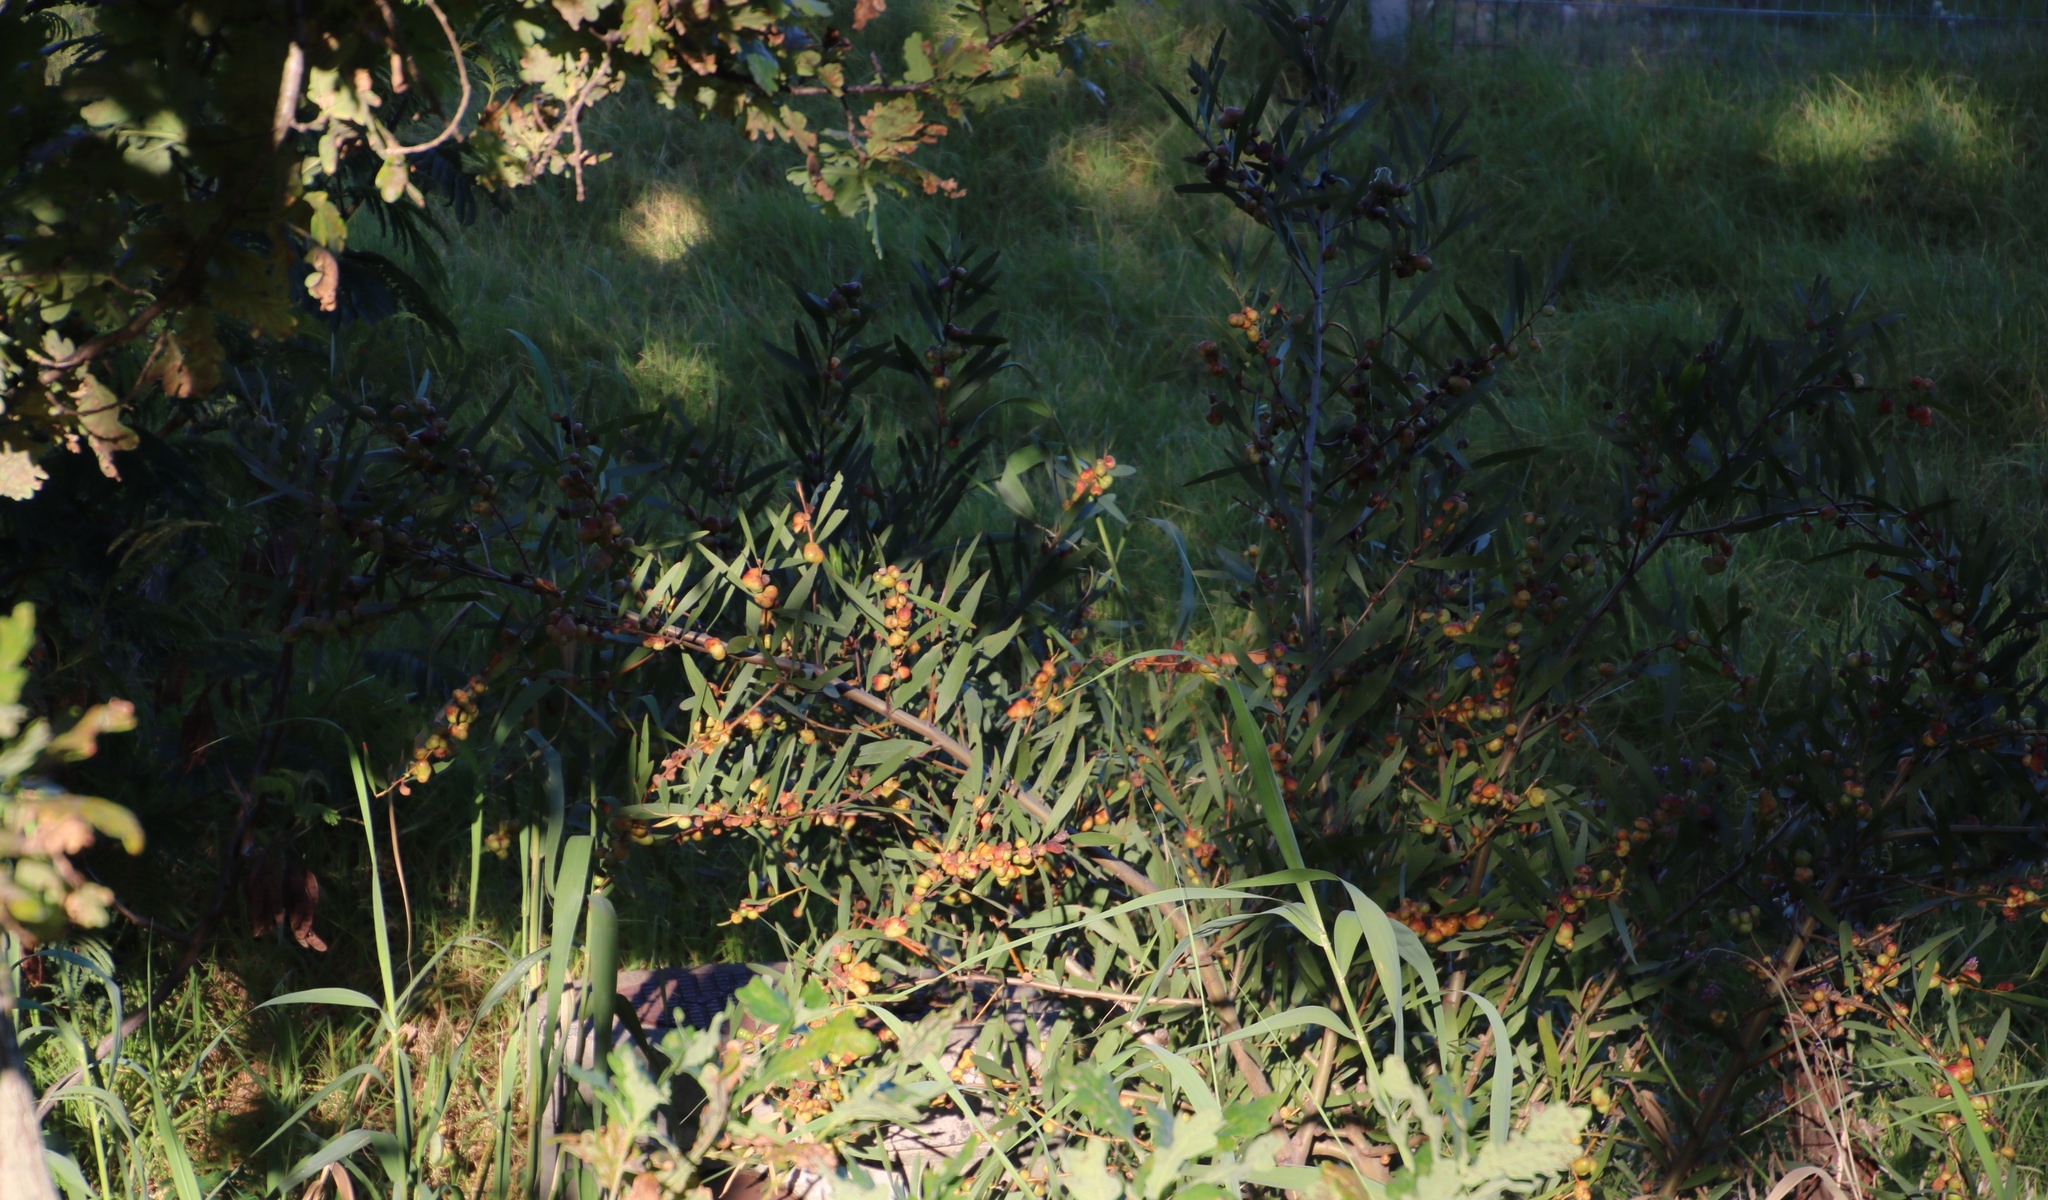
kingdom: Plantae
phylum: Tracheophyta
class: Magnoliopsida
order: Fabales
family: Fabaceae
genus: Acacia
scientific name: Acacia longifolia
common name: Sydney golden wattle
